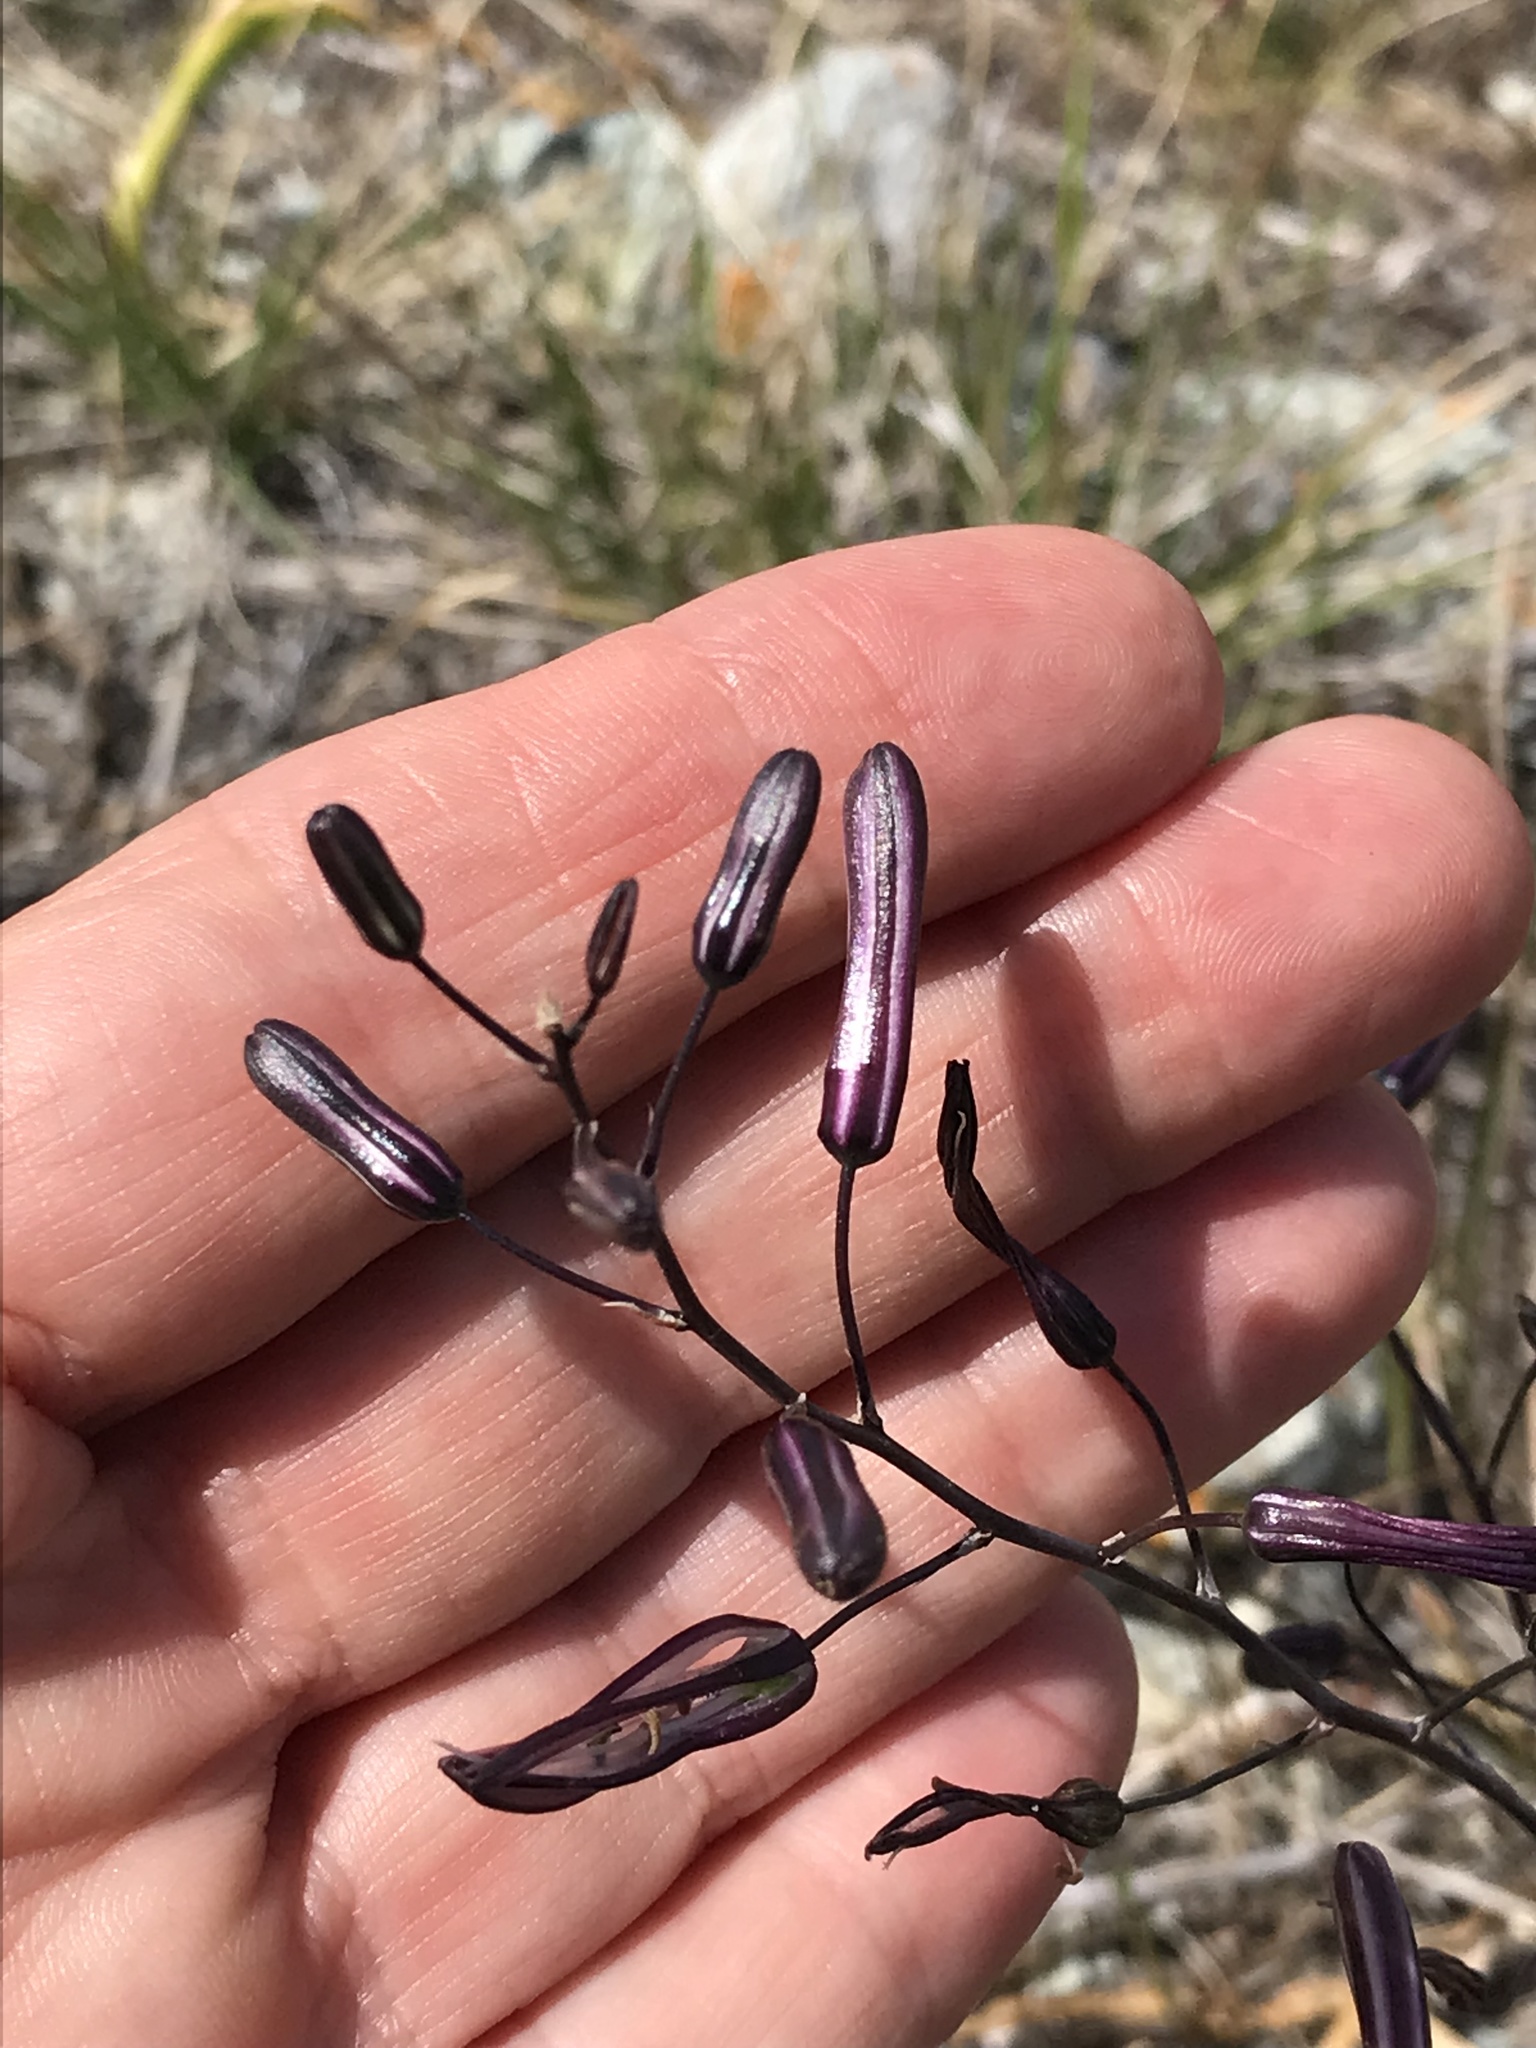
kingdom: Plantae
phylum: Tracheophyta
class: Liliopsida
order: Asparagales
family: Asparagaceae
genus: Chlorogalum
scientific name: Chlorogalum pomeridianum
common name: Amole
